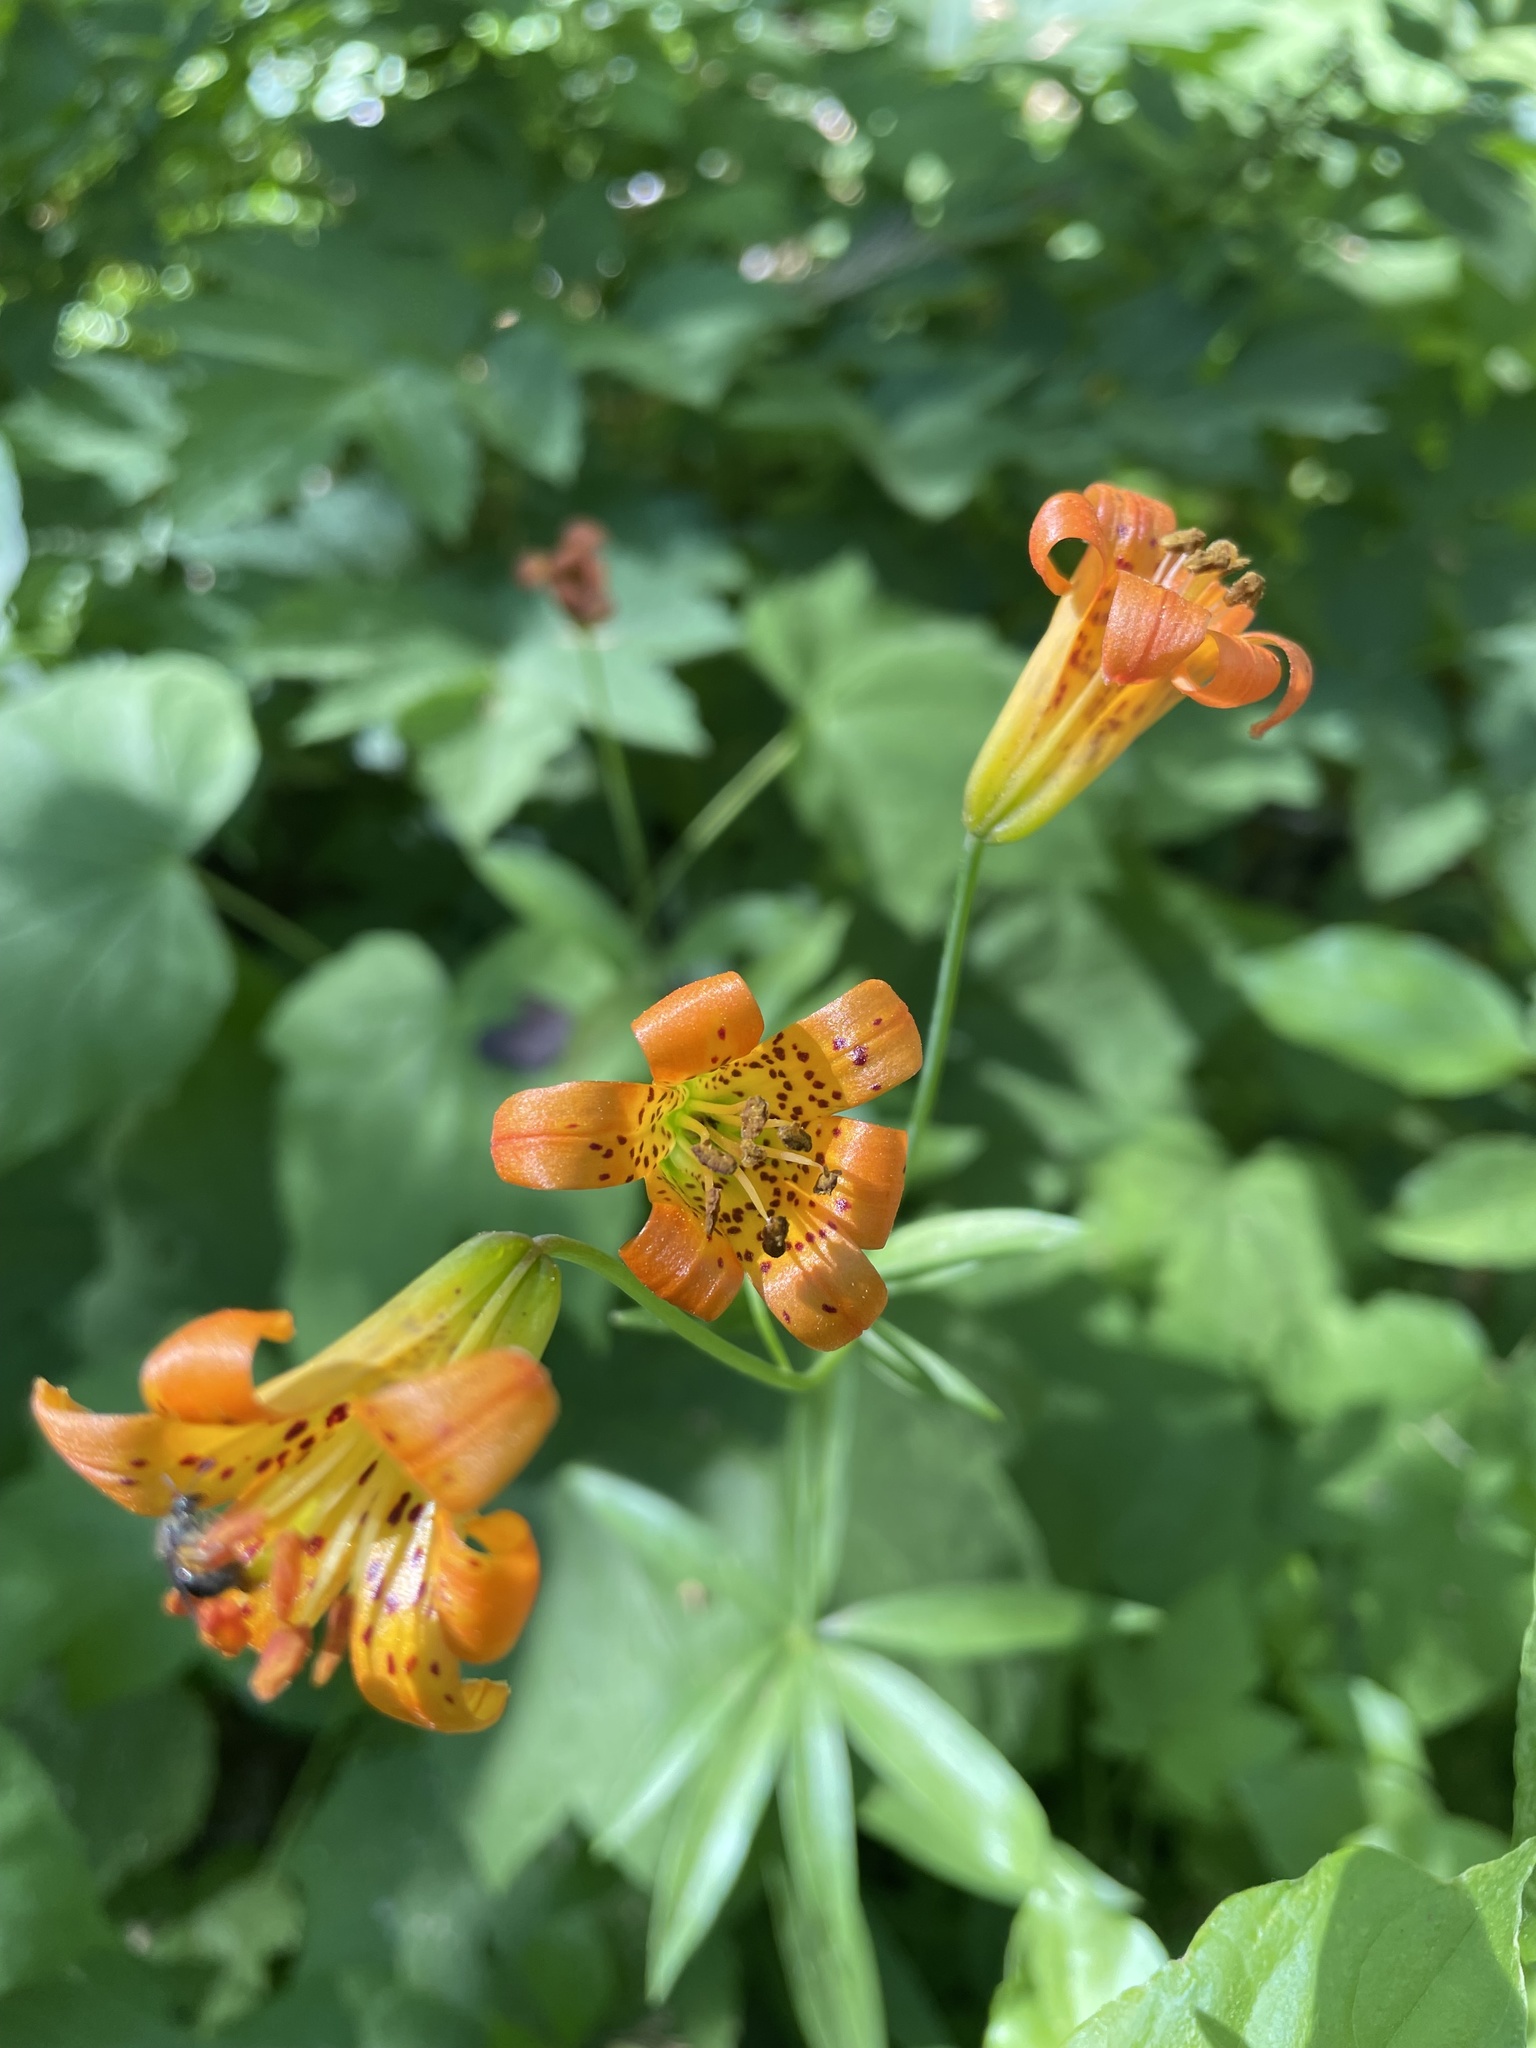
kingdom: Plantae
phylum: Tracheophyta
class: Liliopsida
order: Liliales
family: Liliaceae
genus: Lilium
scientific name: Lilium parvum
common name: Alpine lily
